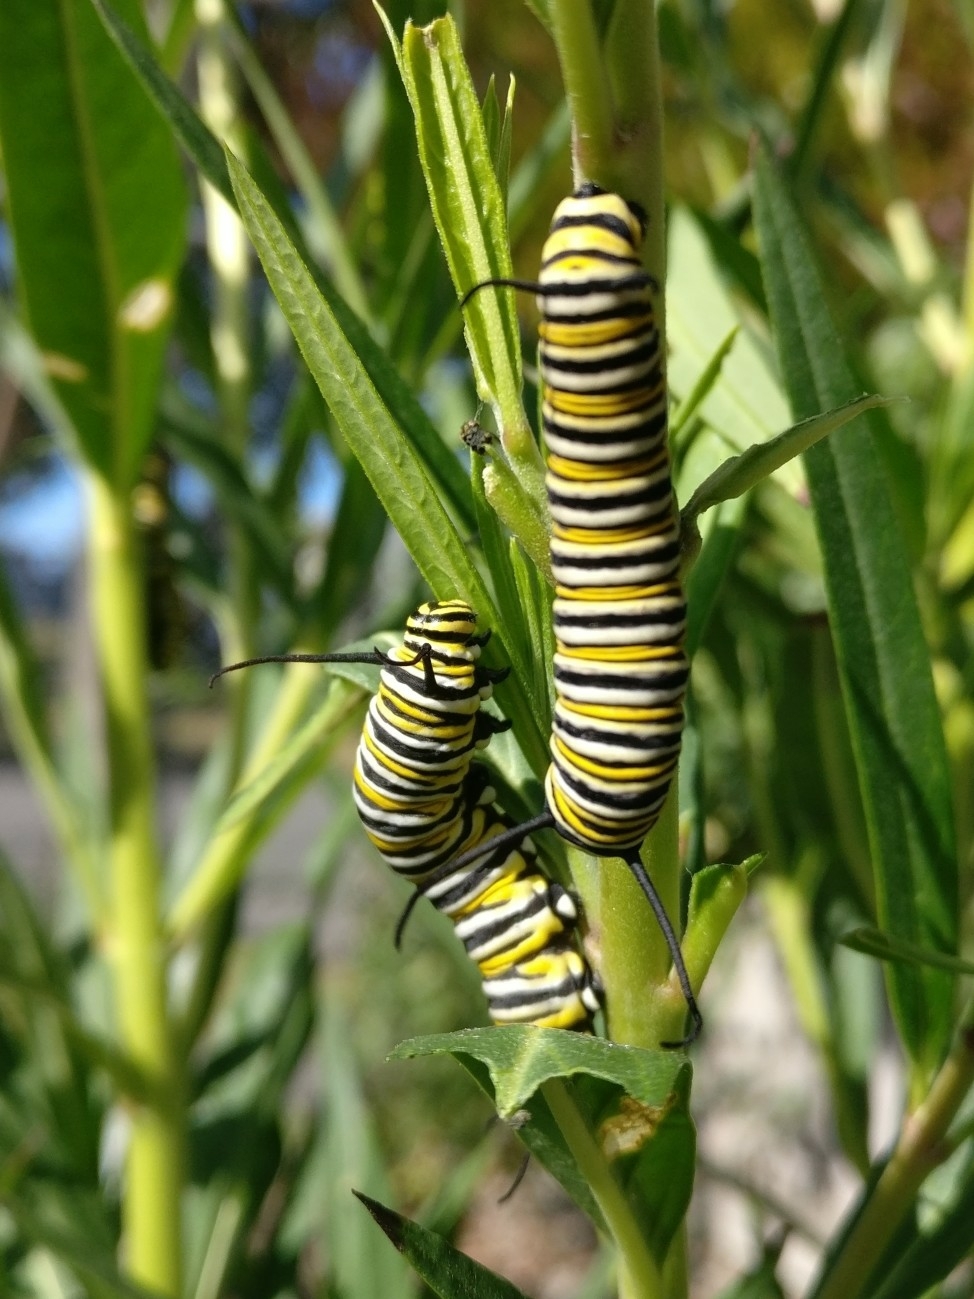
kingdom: Animalia
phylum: Arthropoda
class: Insecta
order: Lepidoptera
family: Nymphalidae
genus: Danaus
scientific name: Danaus plexippus
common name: Monarch
